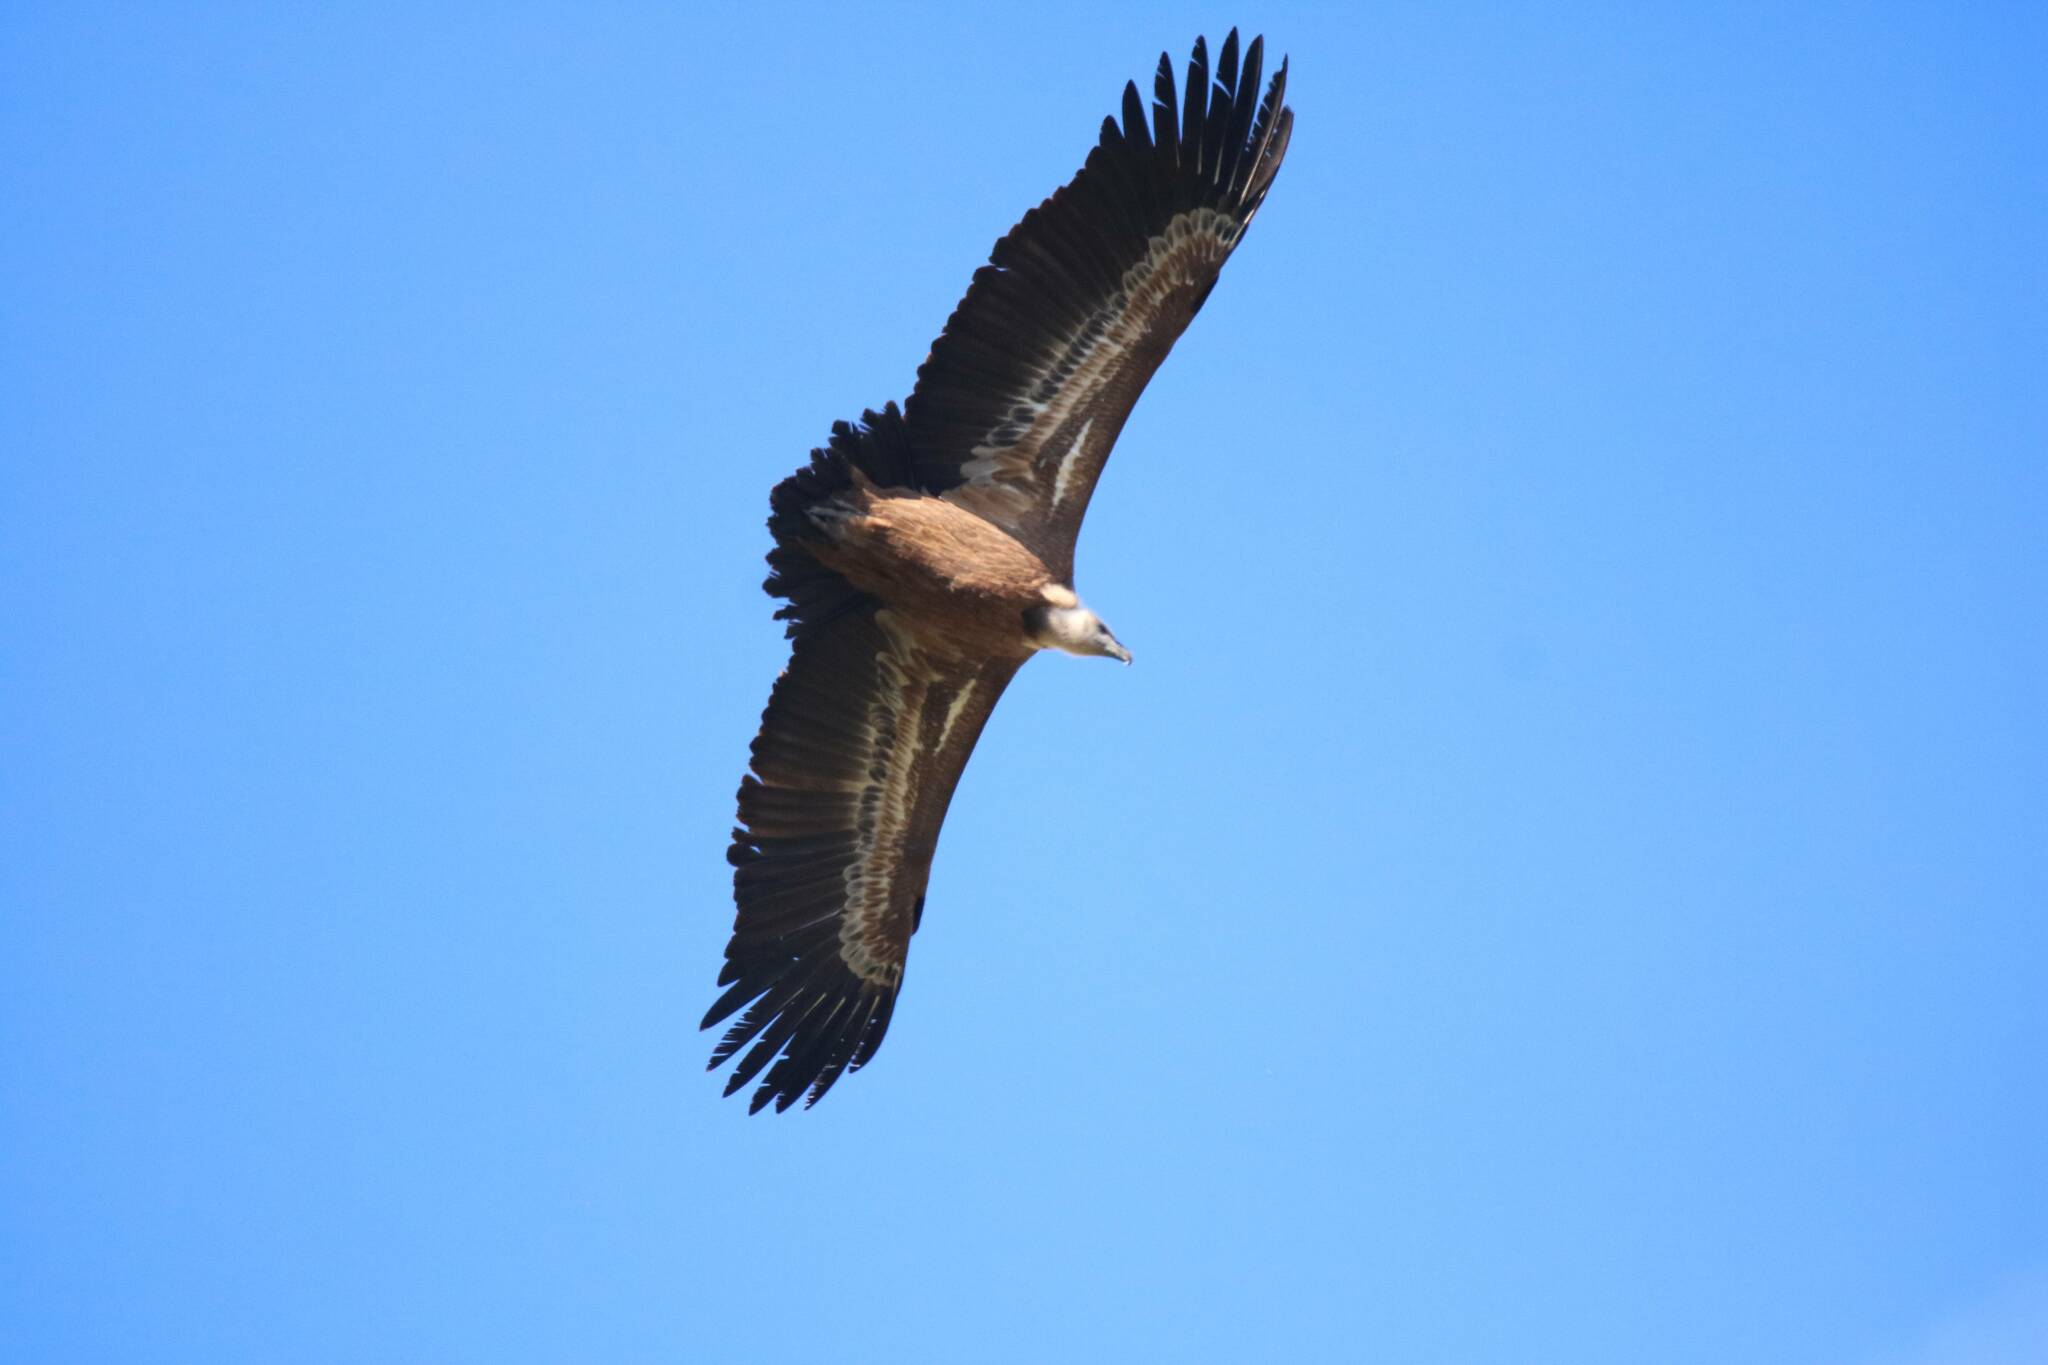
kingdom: Animalia
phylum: Chordata
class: Aves
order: Accipitriformes
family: Accipitridae
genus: Gyps
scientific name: Gyps fulvus
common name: Griffon vulture
